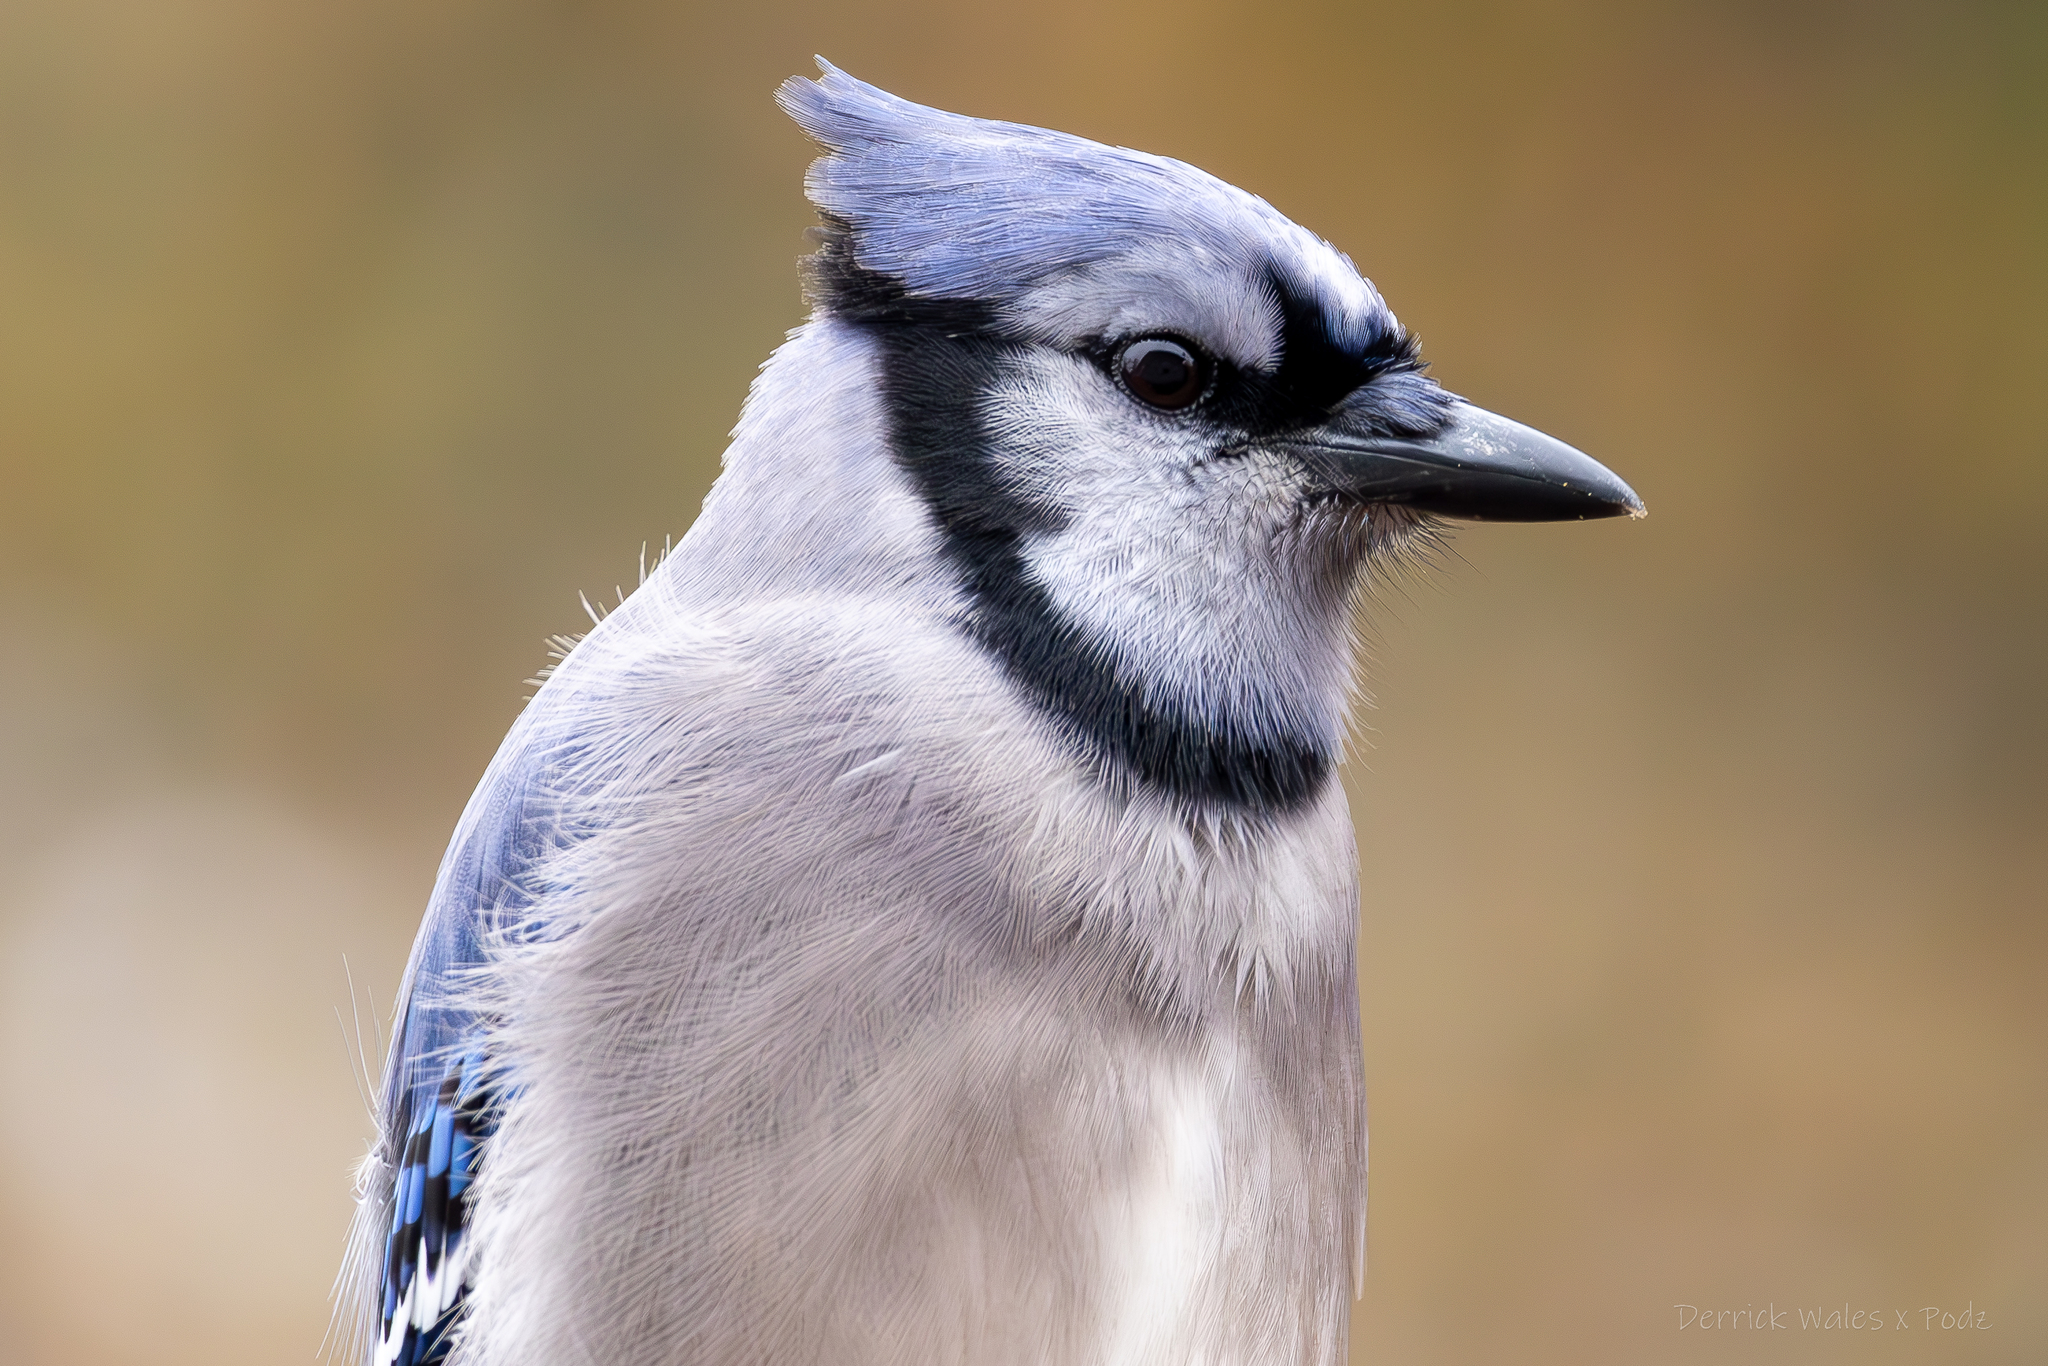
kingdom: Animalia
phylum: Chordata
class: Aves
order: Passeriformes
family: Corvidae
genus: Cyanocitta
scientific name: Cyanocitta cristata
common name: Blue jay
